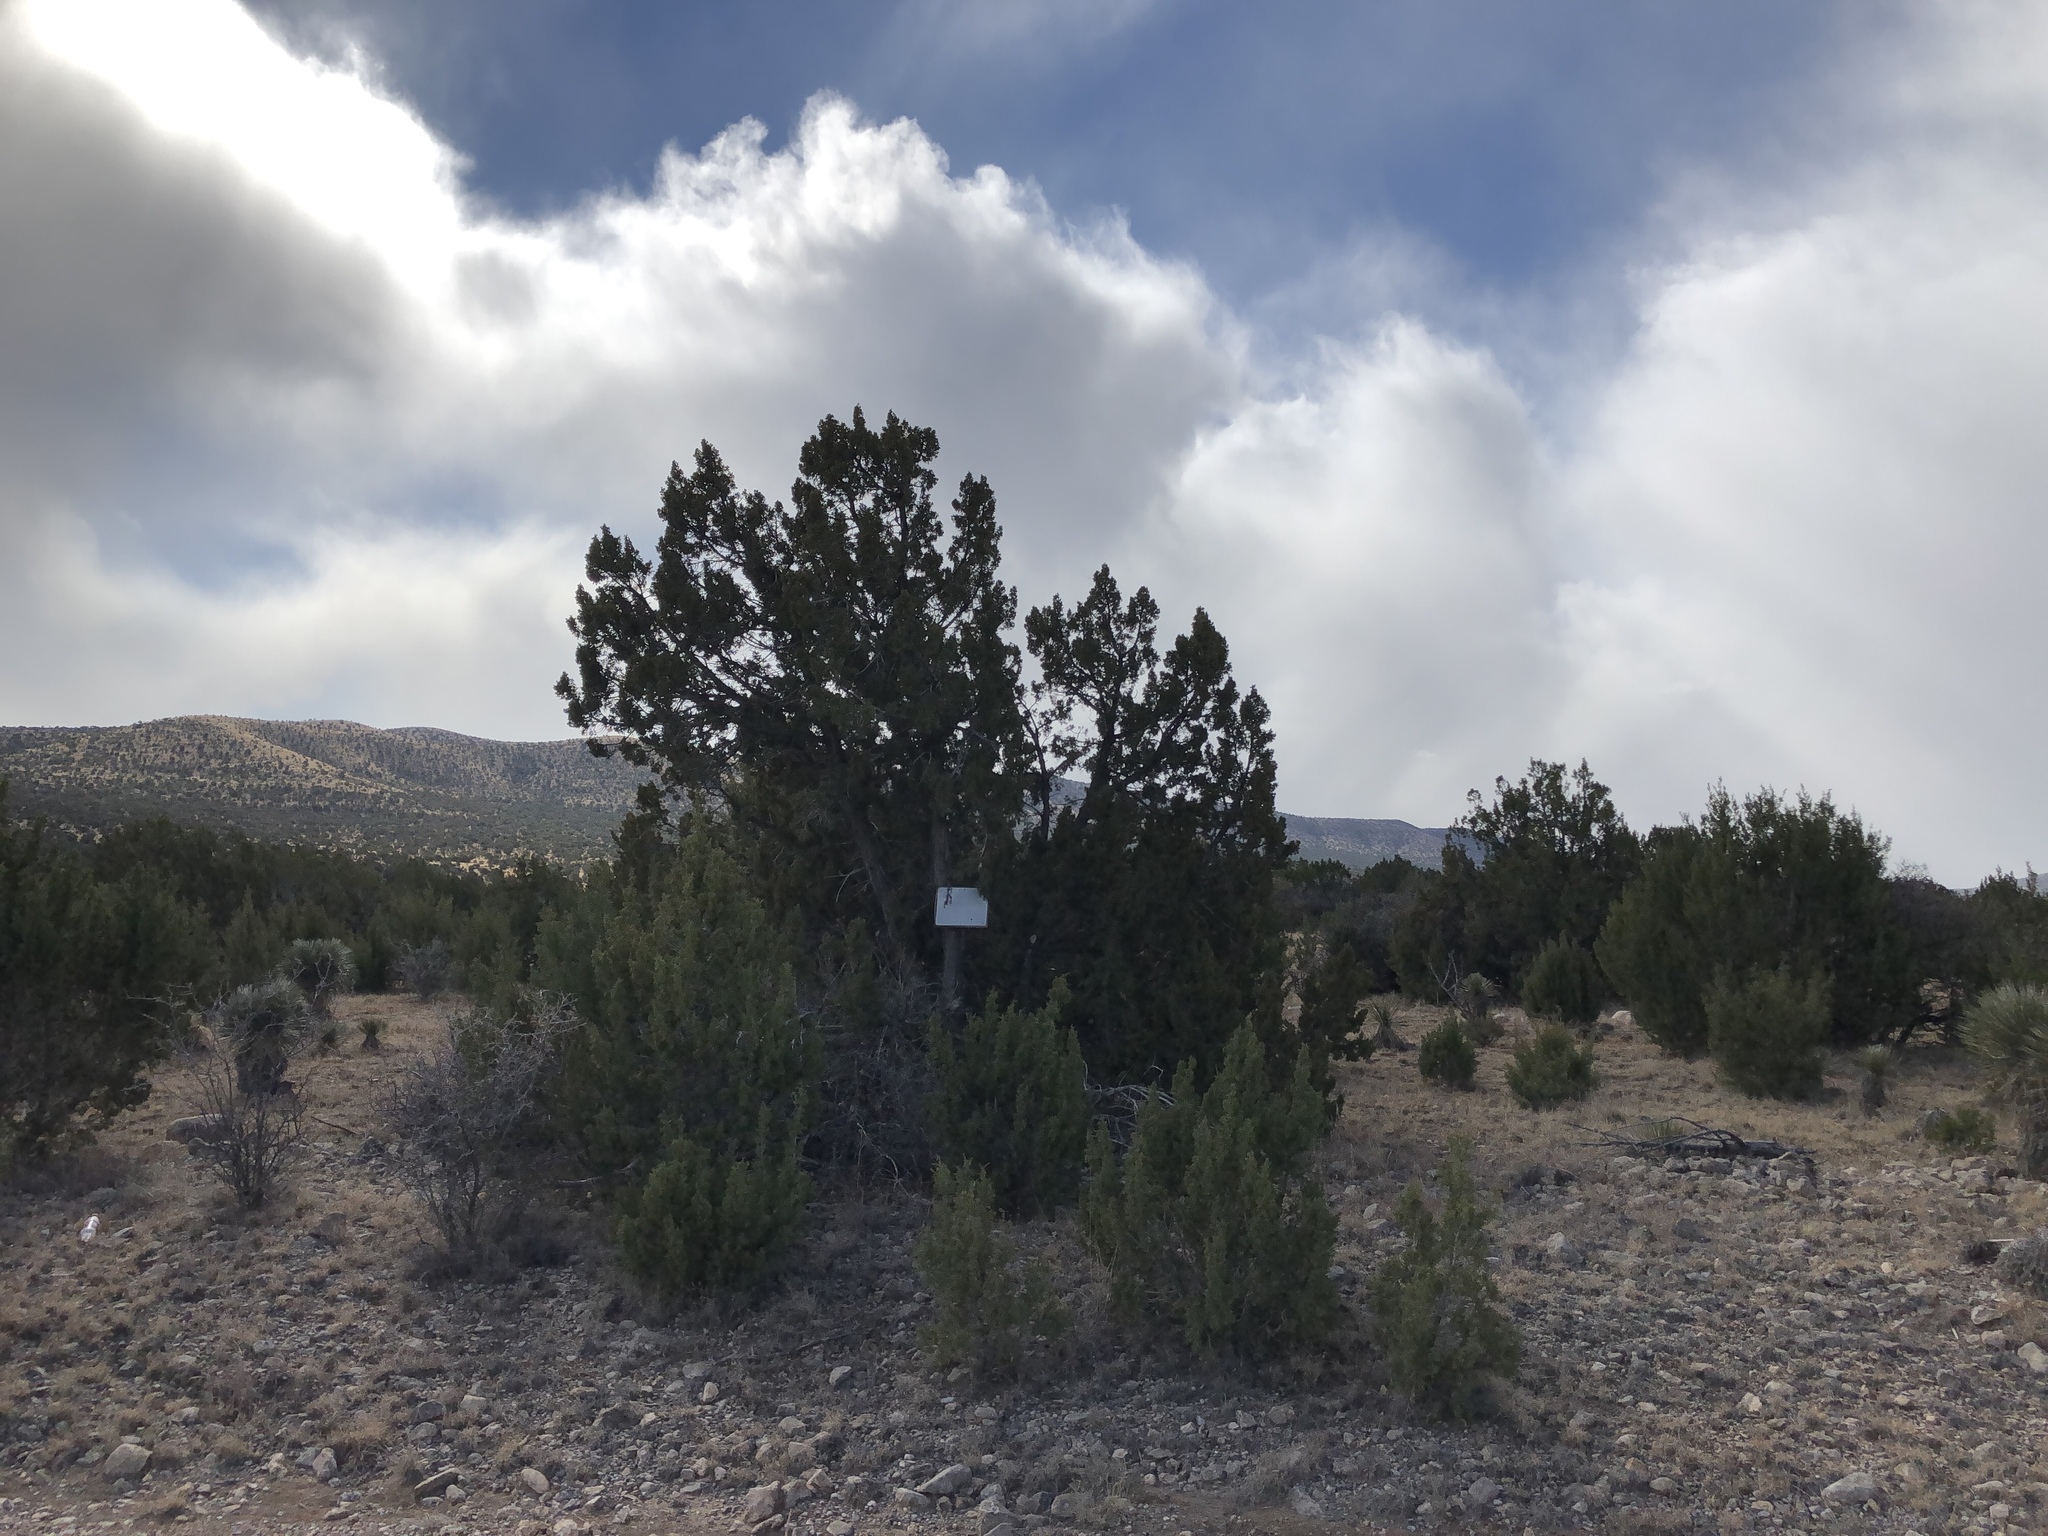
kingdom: Plantae
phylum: Tracheophyta
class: Pinopsida
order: Pinales
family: Cupressaceae
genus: Juniperus
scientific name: Juniperus monosperma
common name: One-seed juniper
